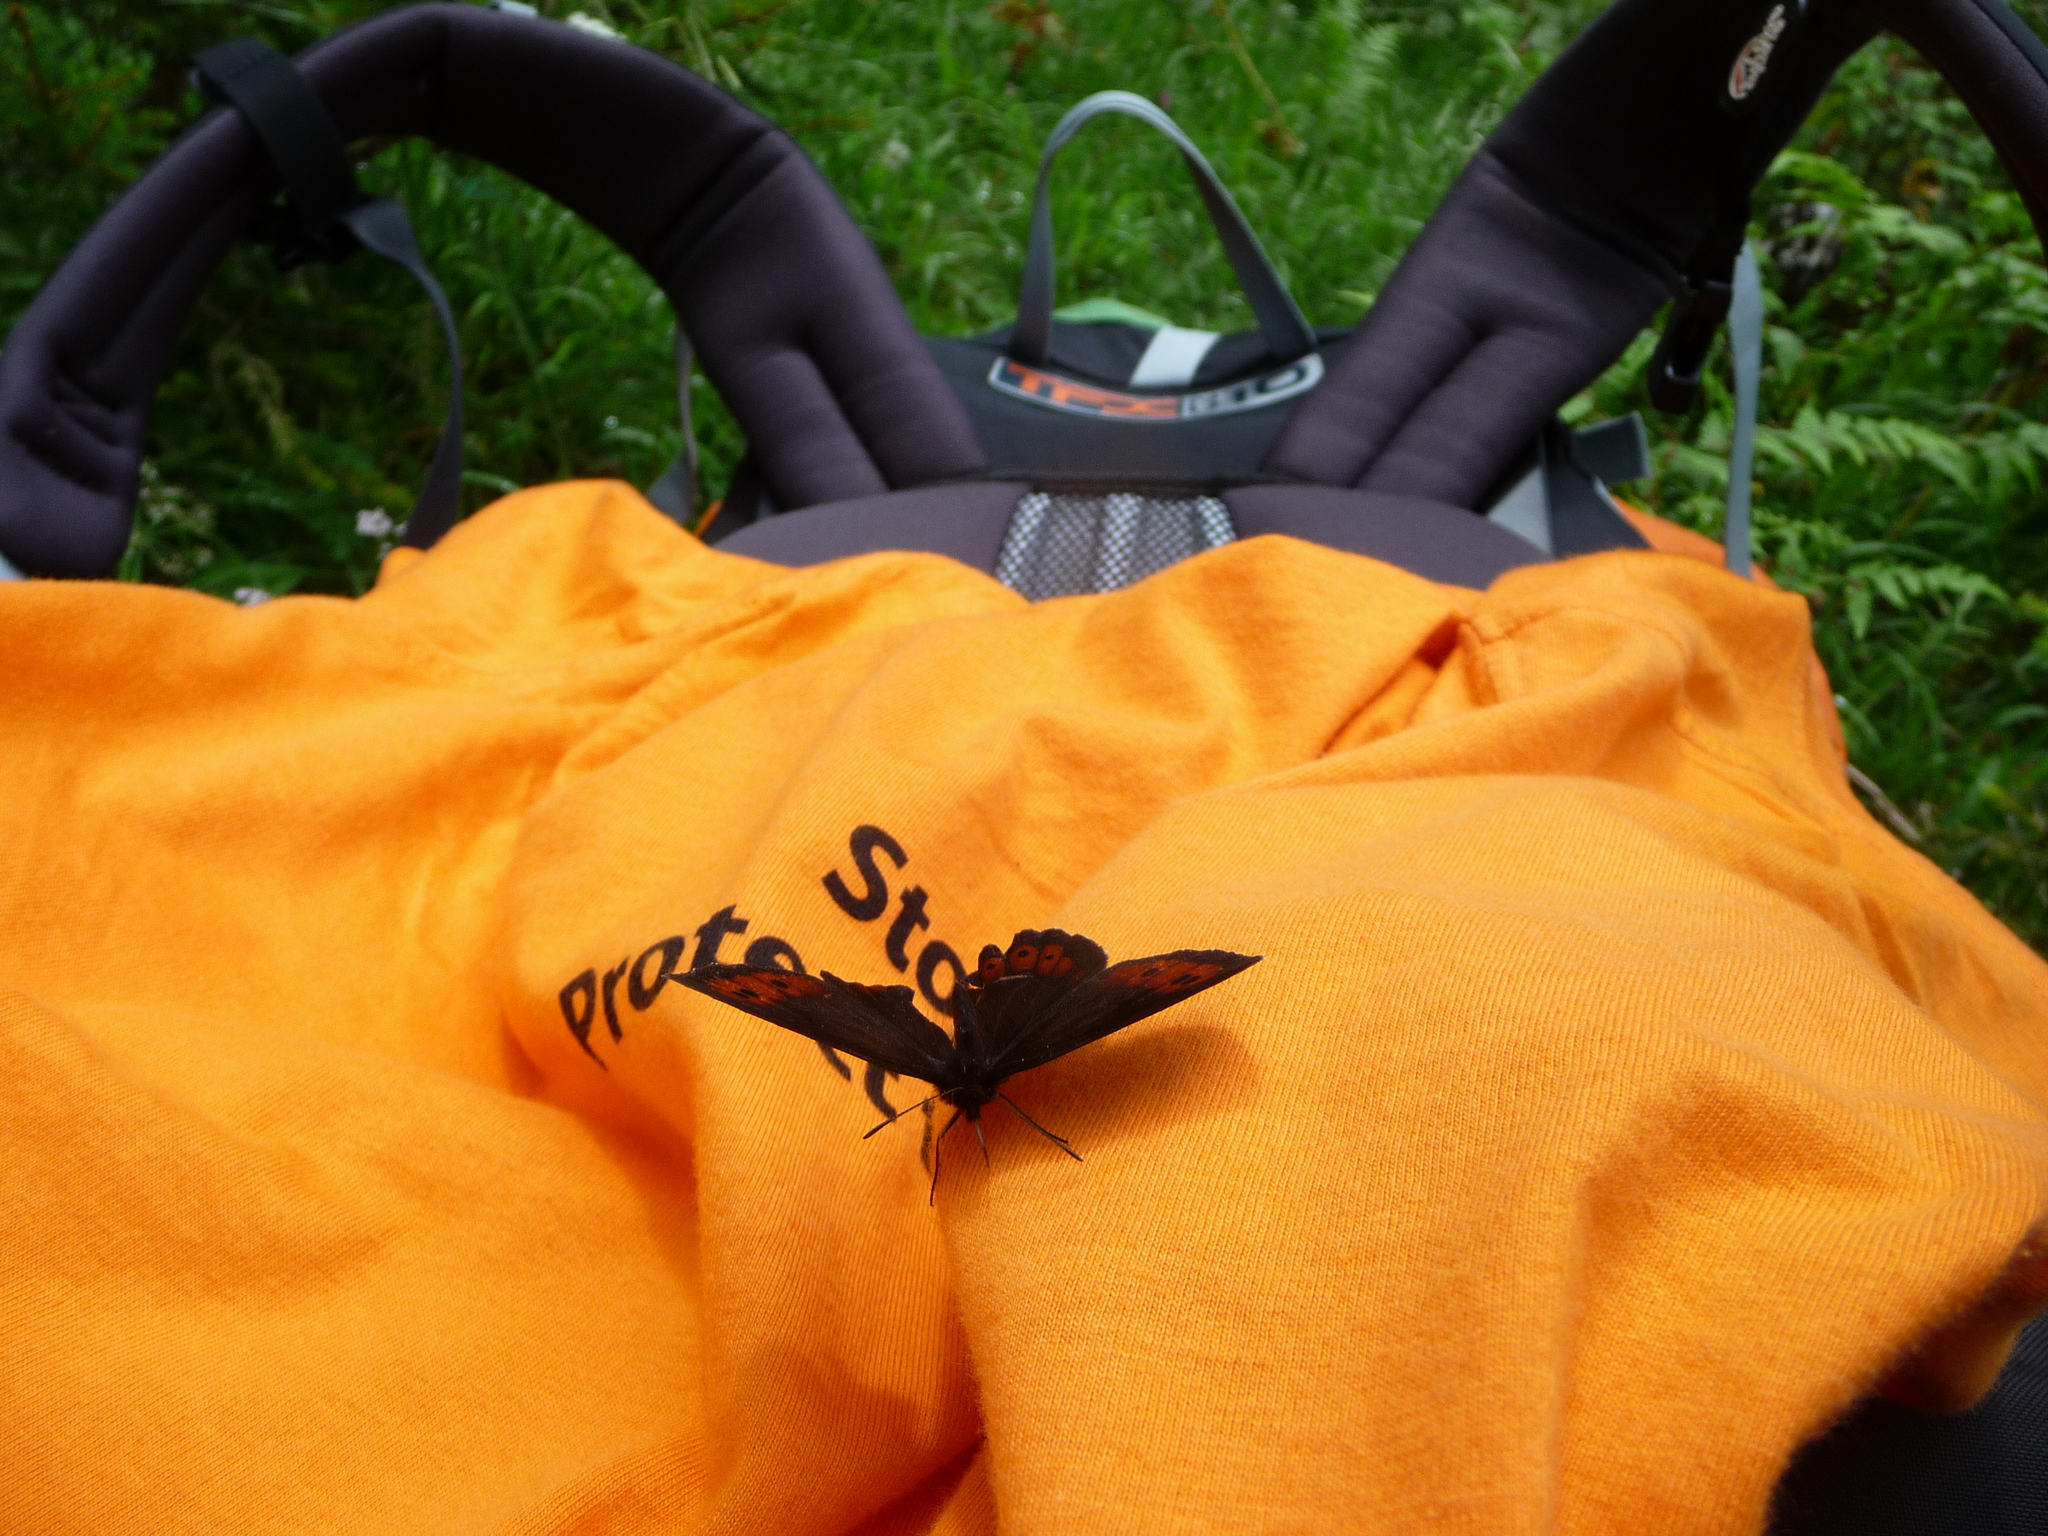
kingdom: Animalia
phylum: Arthropoda
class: Insecta
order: Lepidoptera
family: Nymphalidae
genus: Erebia
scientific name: Erebia euryale
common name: Large ringlet
